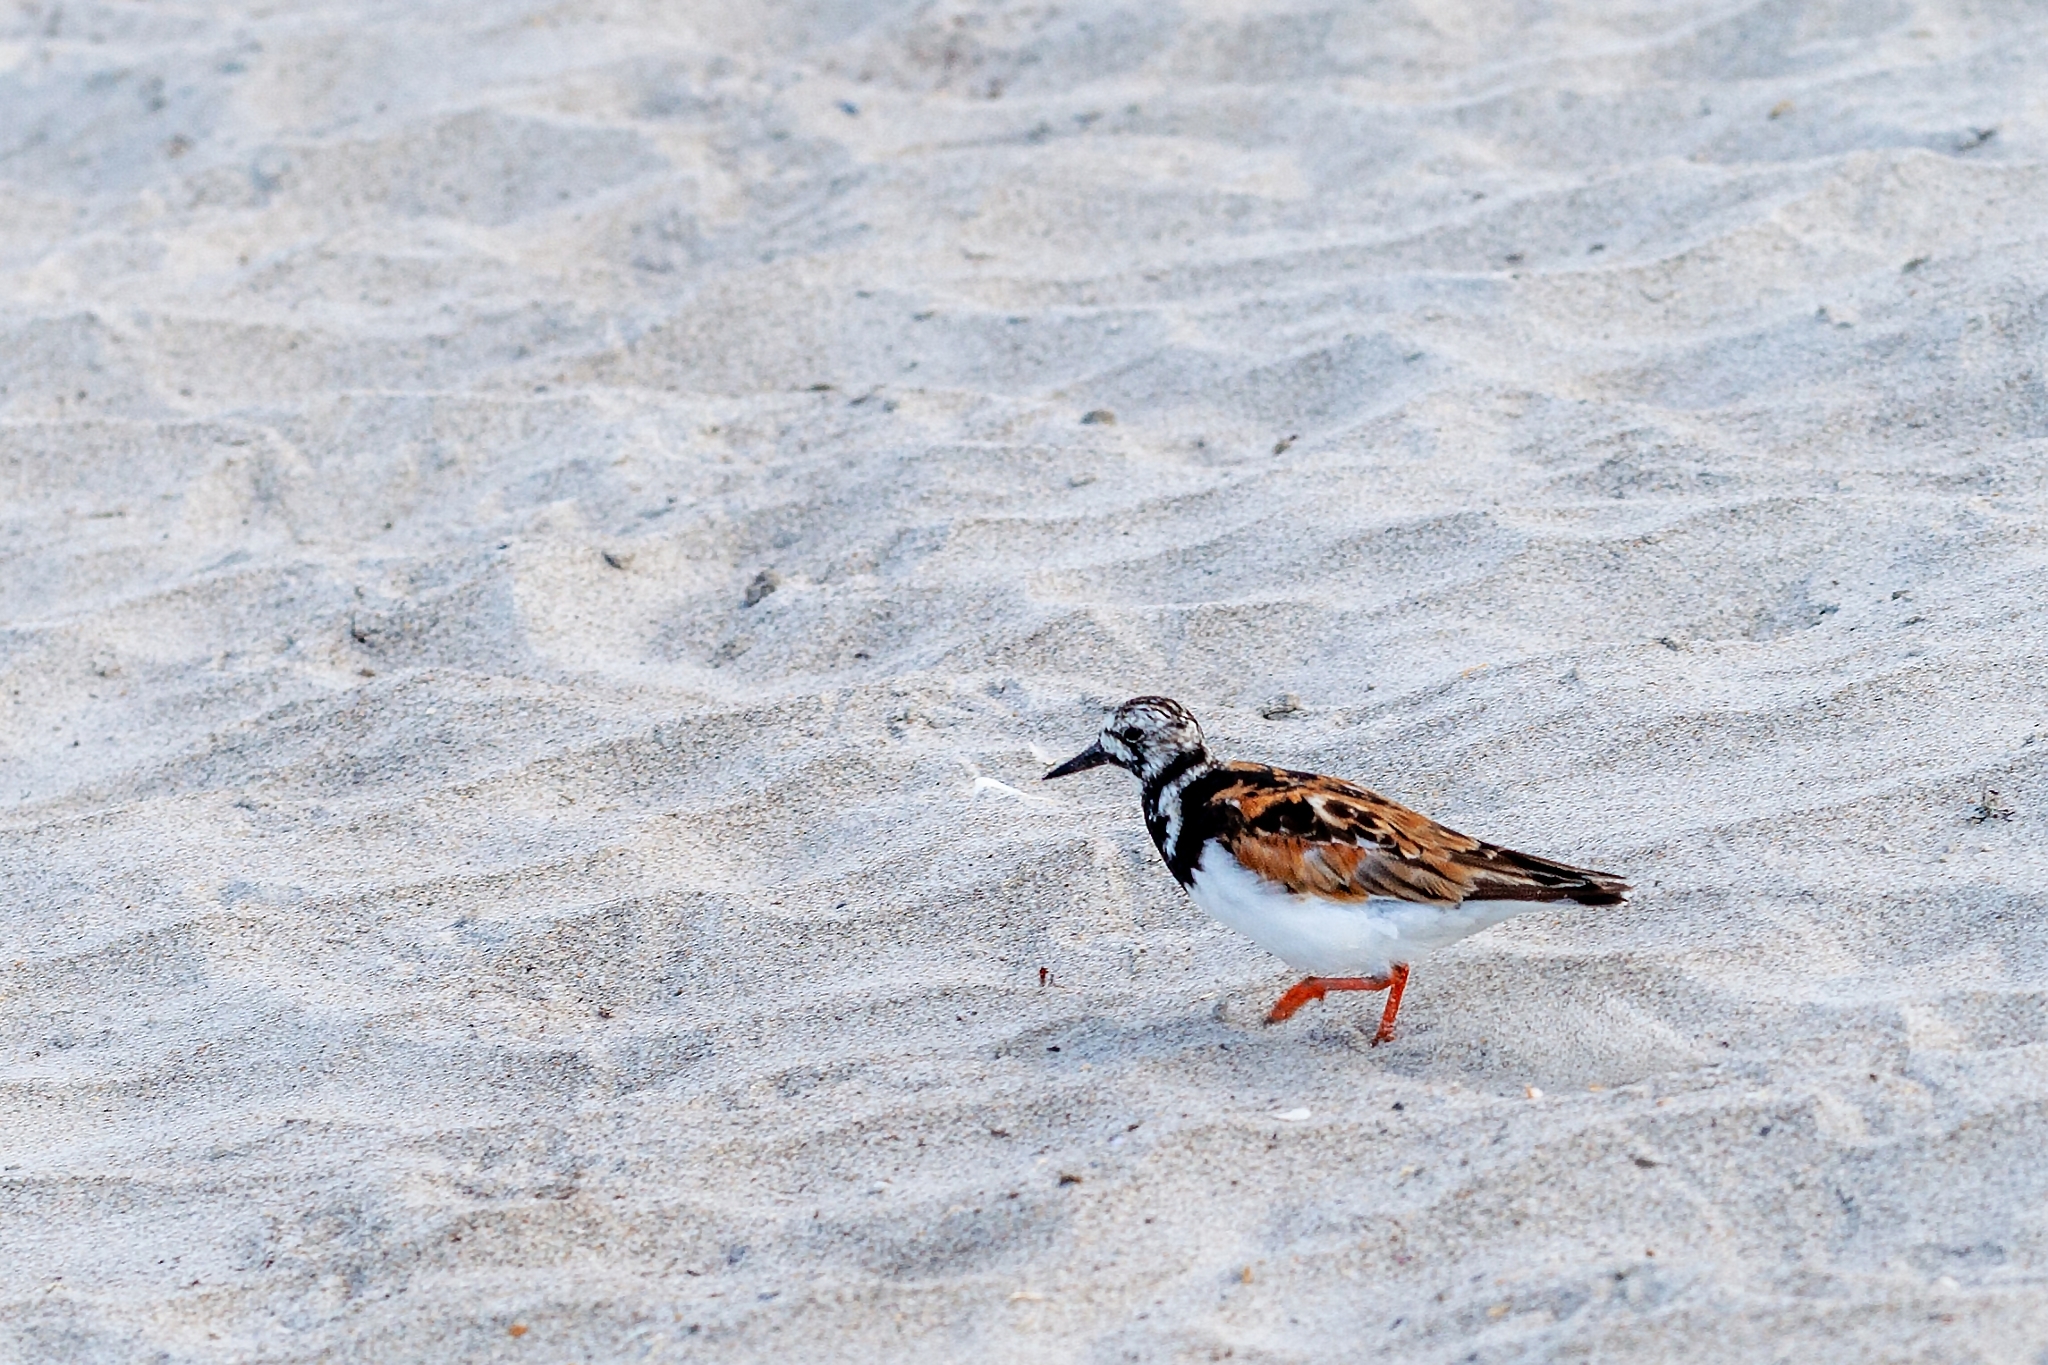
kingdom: Animalia
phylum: Chordata
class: Aves
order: Charadriiformes
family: Scolopacidae
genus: Arenaria
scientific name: Arenaria interpres
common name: Ruddy turnstone
